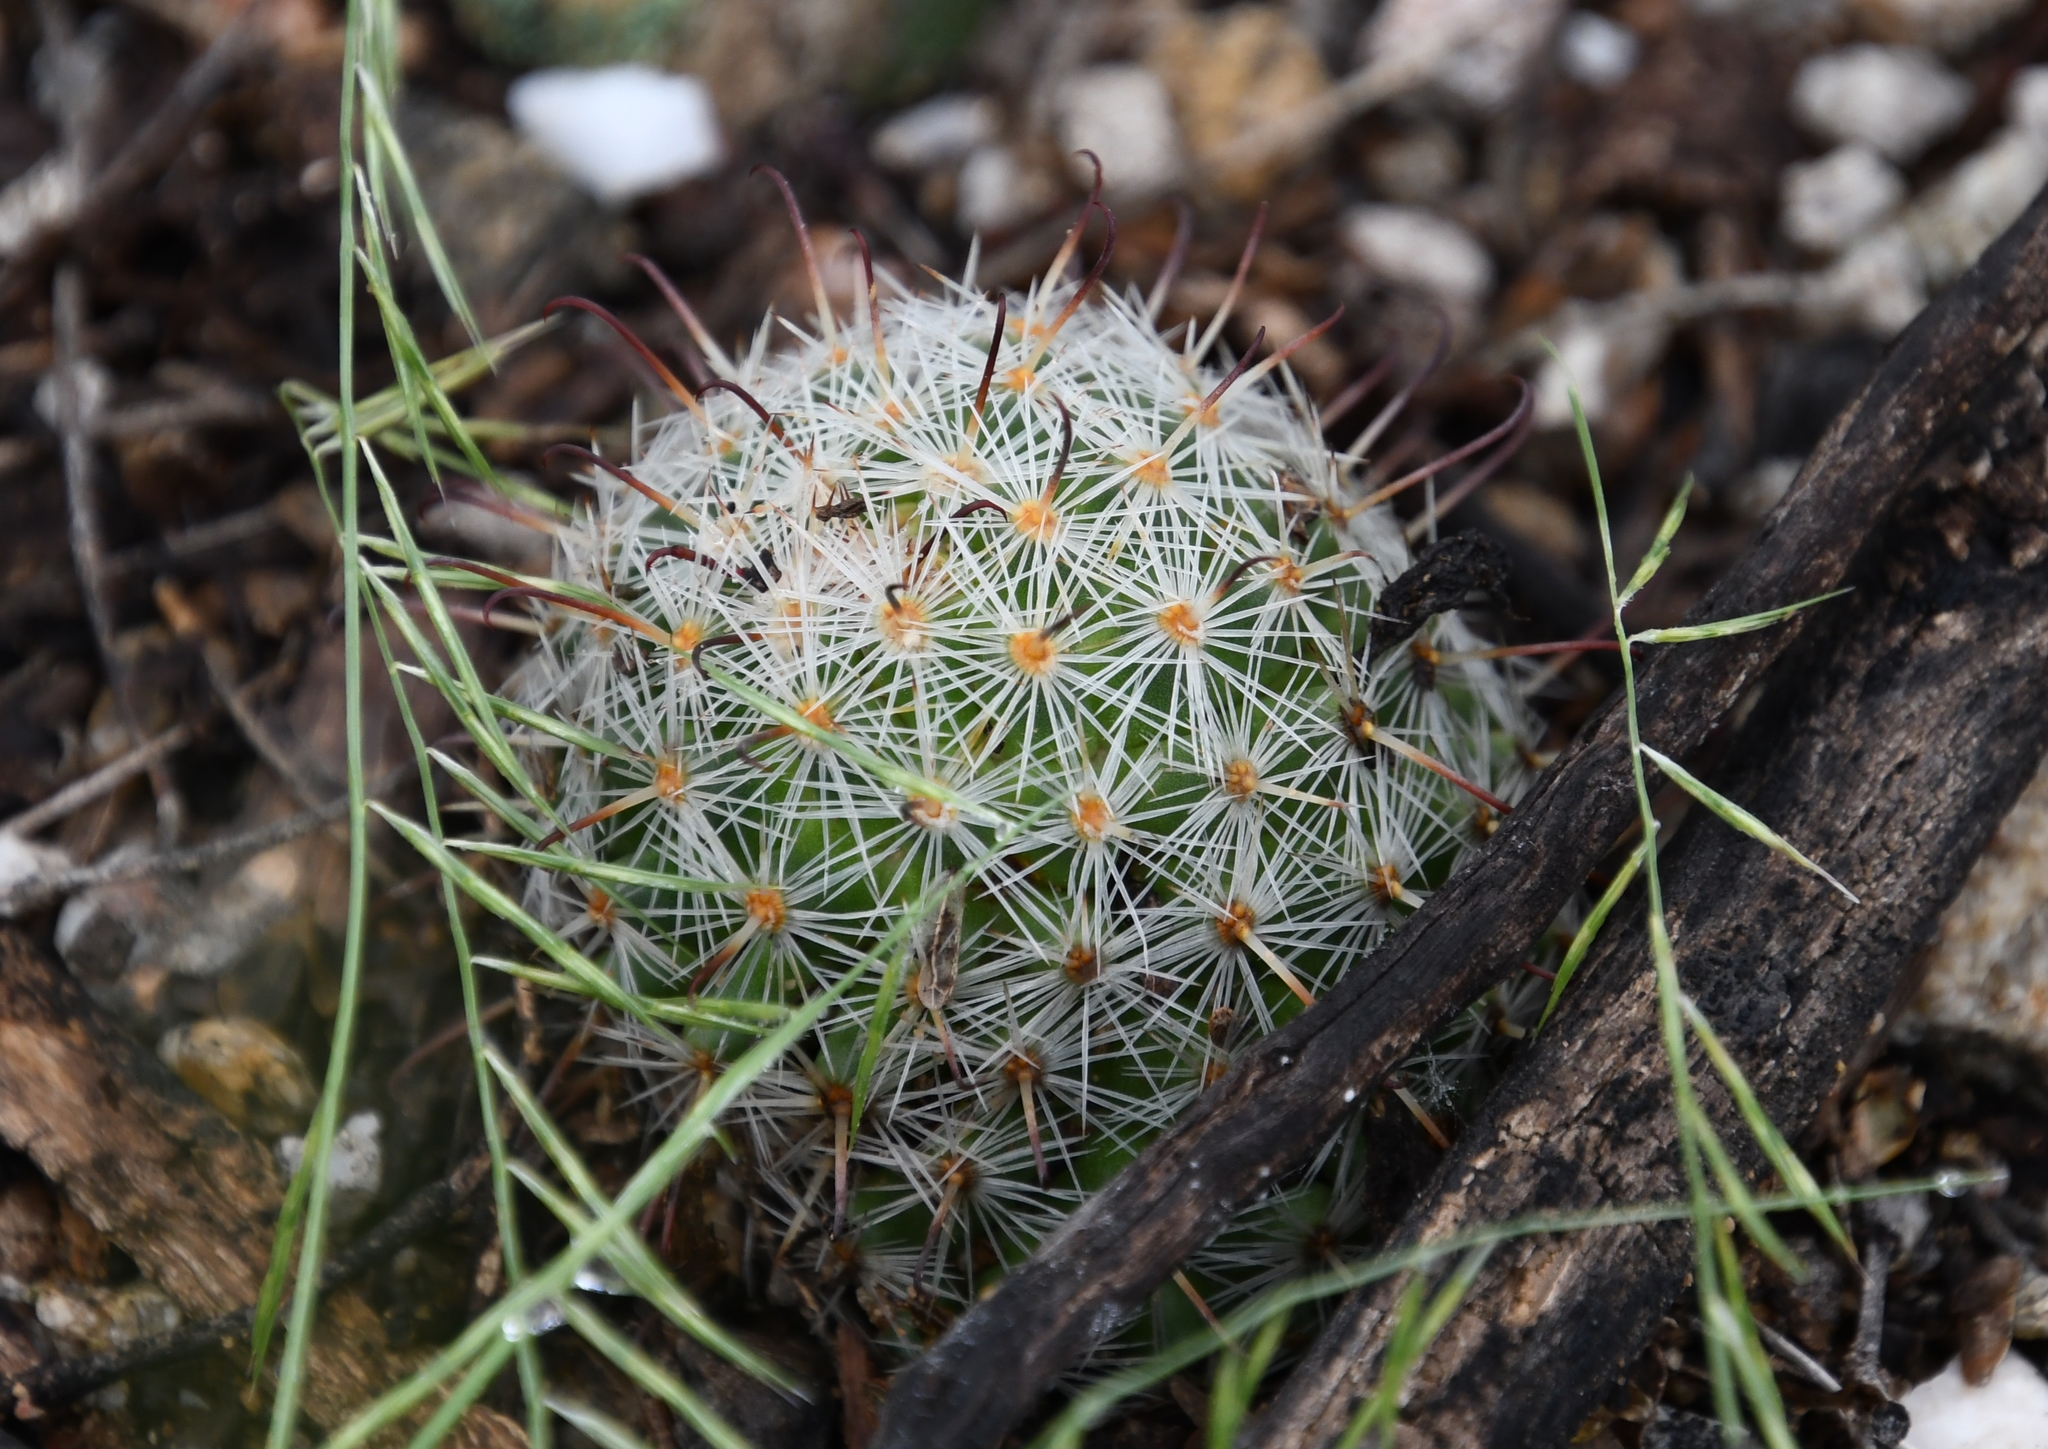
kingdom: Plantae
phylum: Tracheophyta
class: Magnoliopsida
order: Caryophyllales
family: Cactaceae
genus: Cochemiea
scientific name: Cochemiea grahamii
